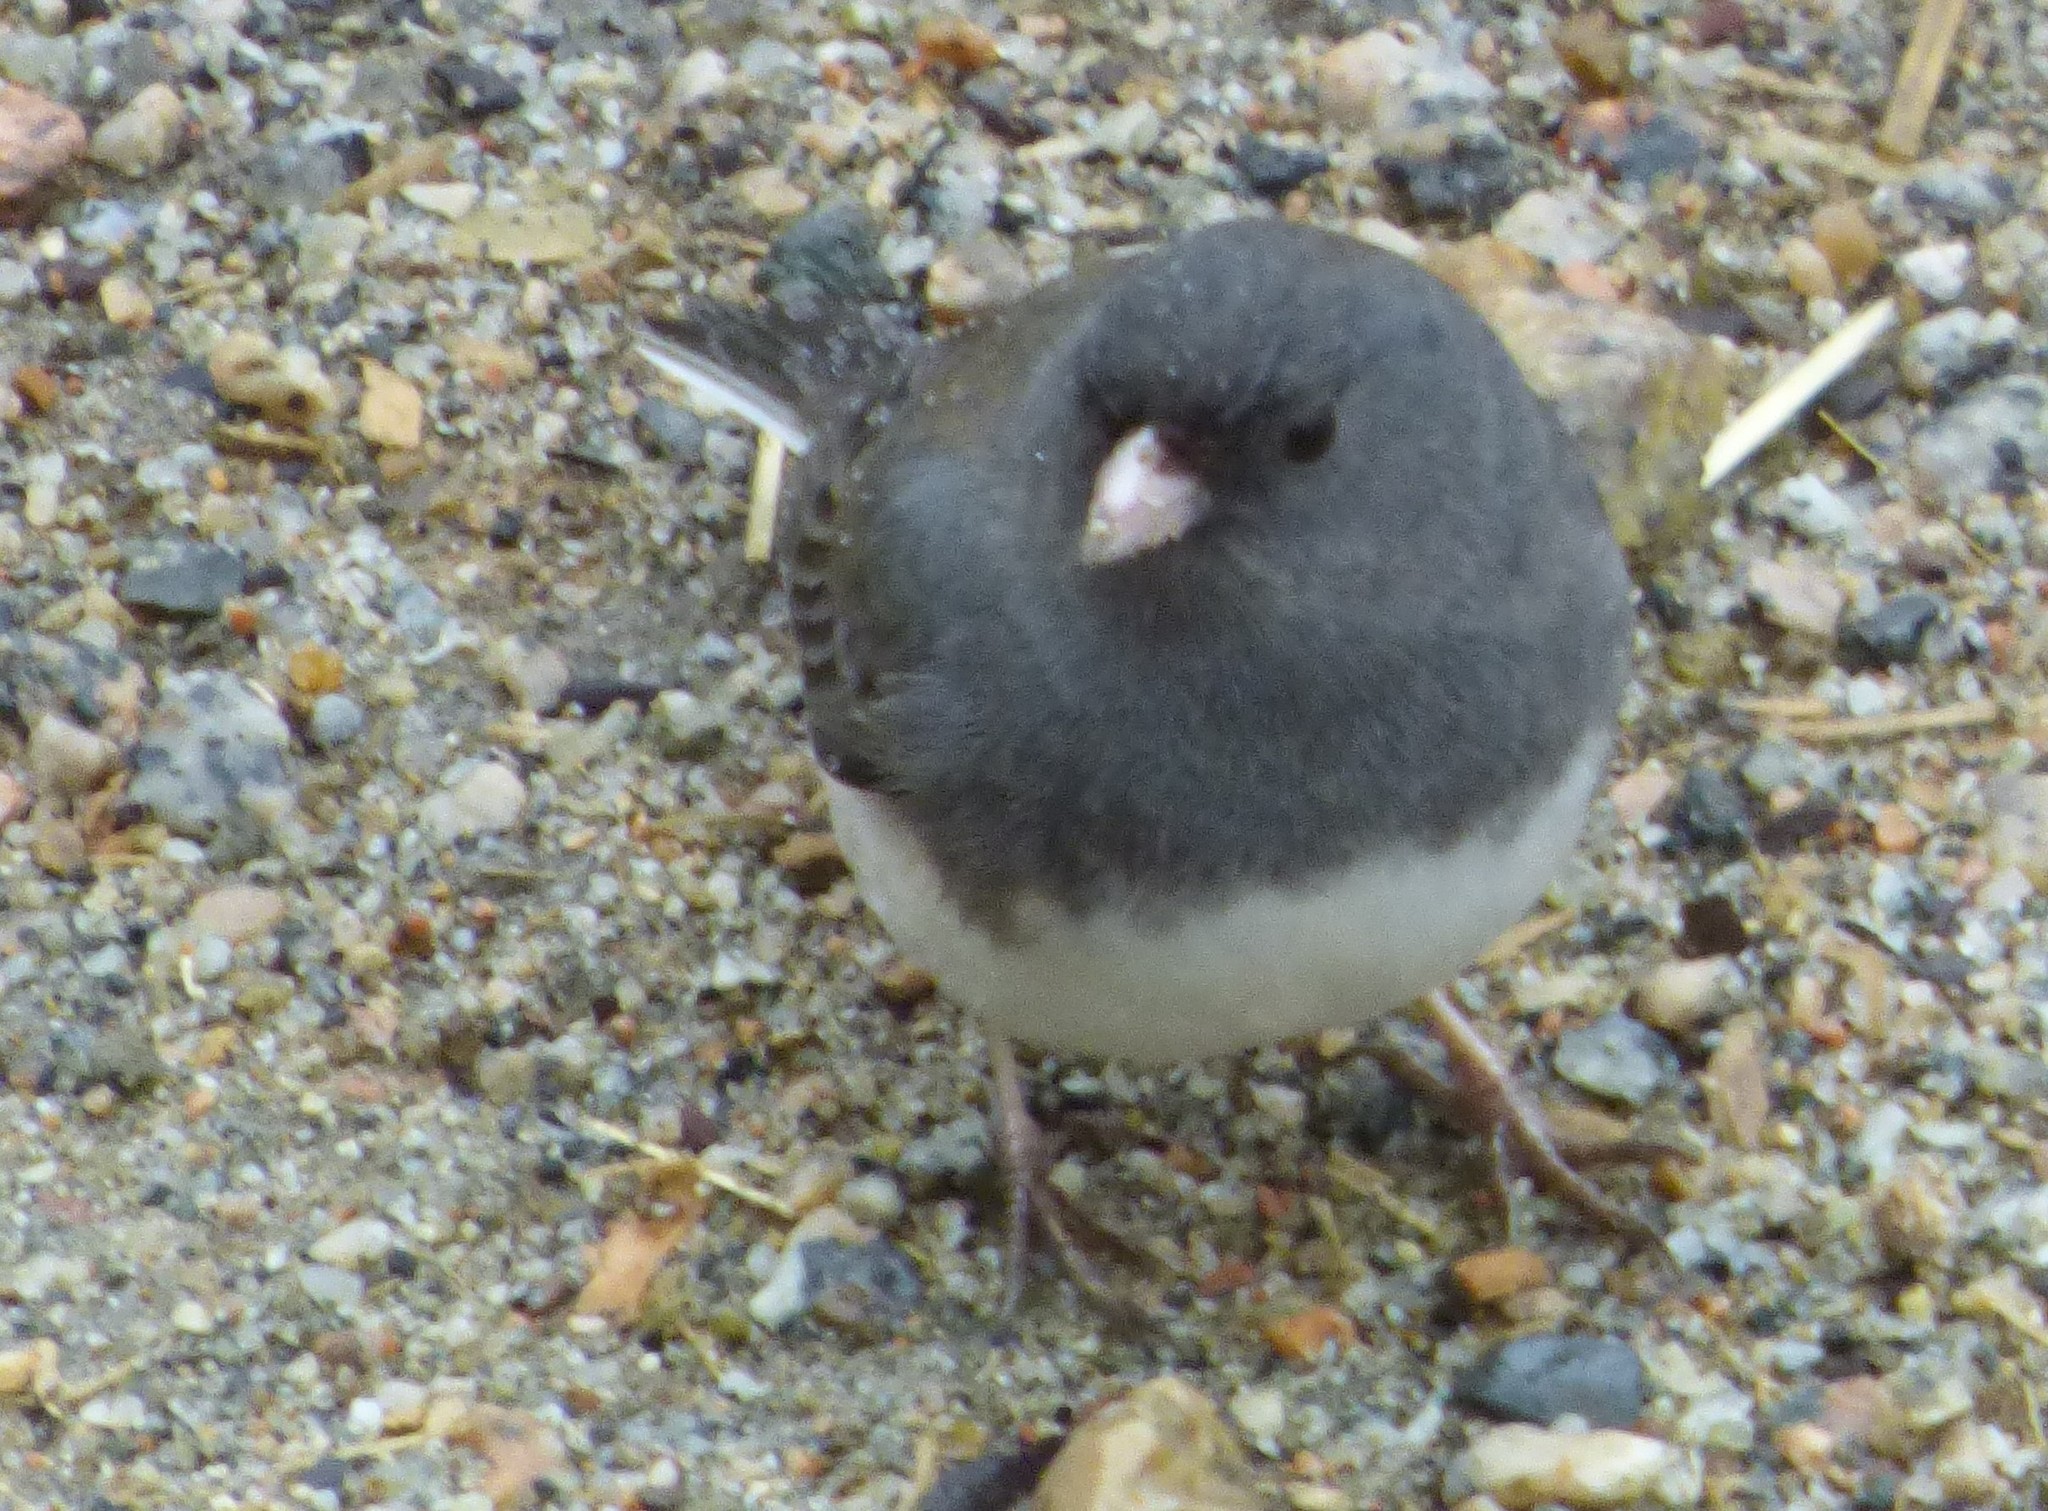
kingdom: Animalia
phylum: Chordata
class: Aves
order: Passeriformes
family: Passerellidae
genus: Junco
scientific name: Junco hyemalis
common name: Dark-eyed junco
